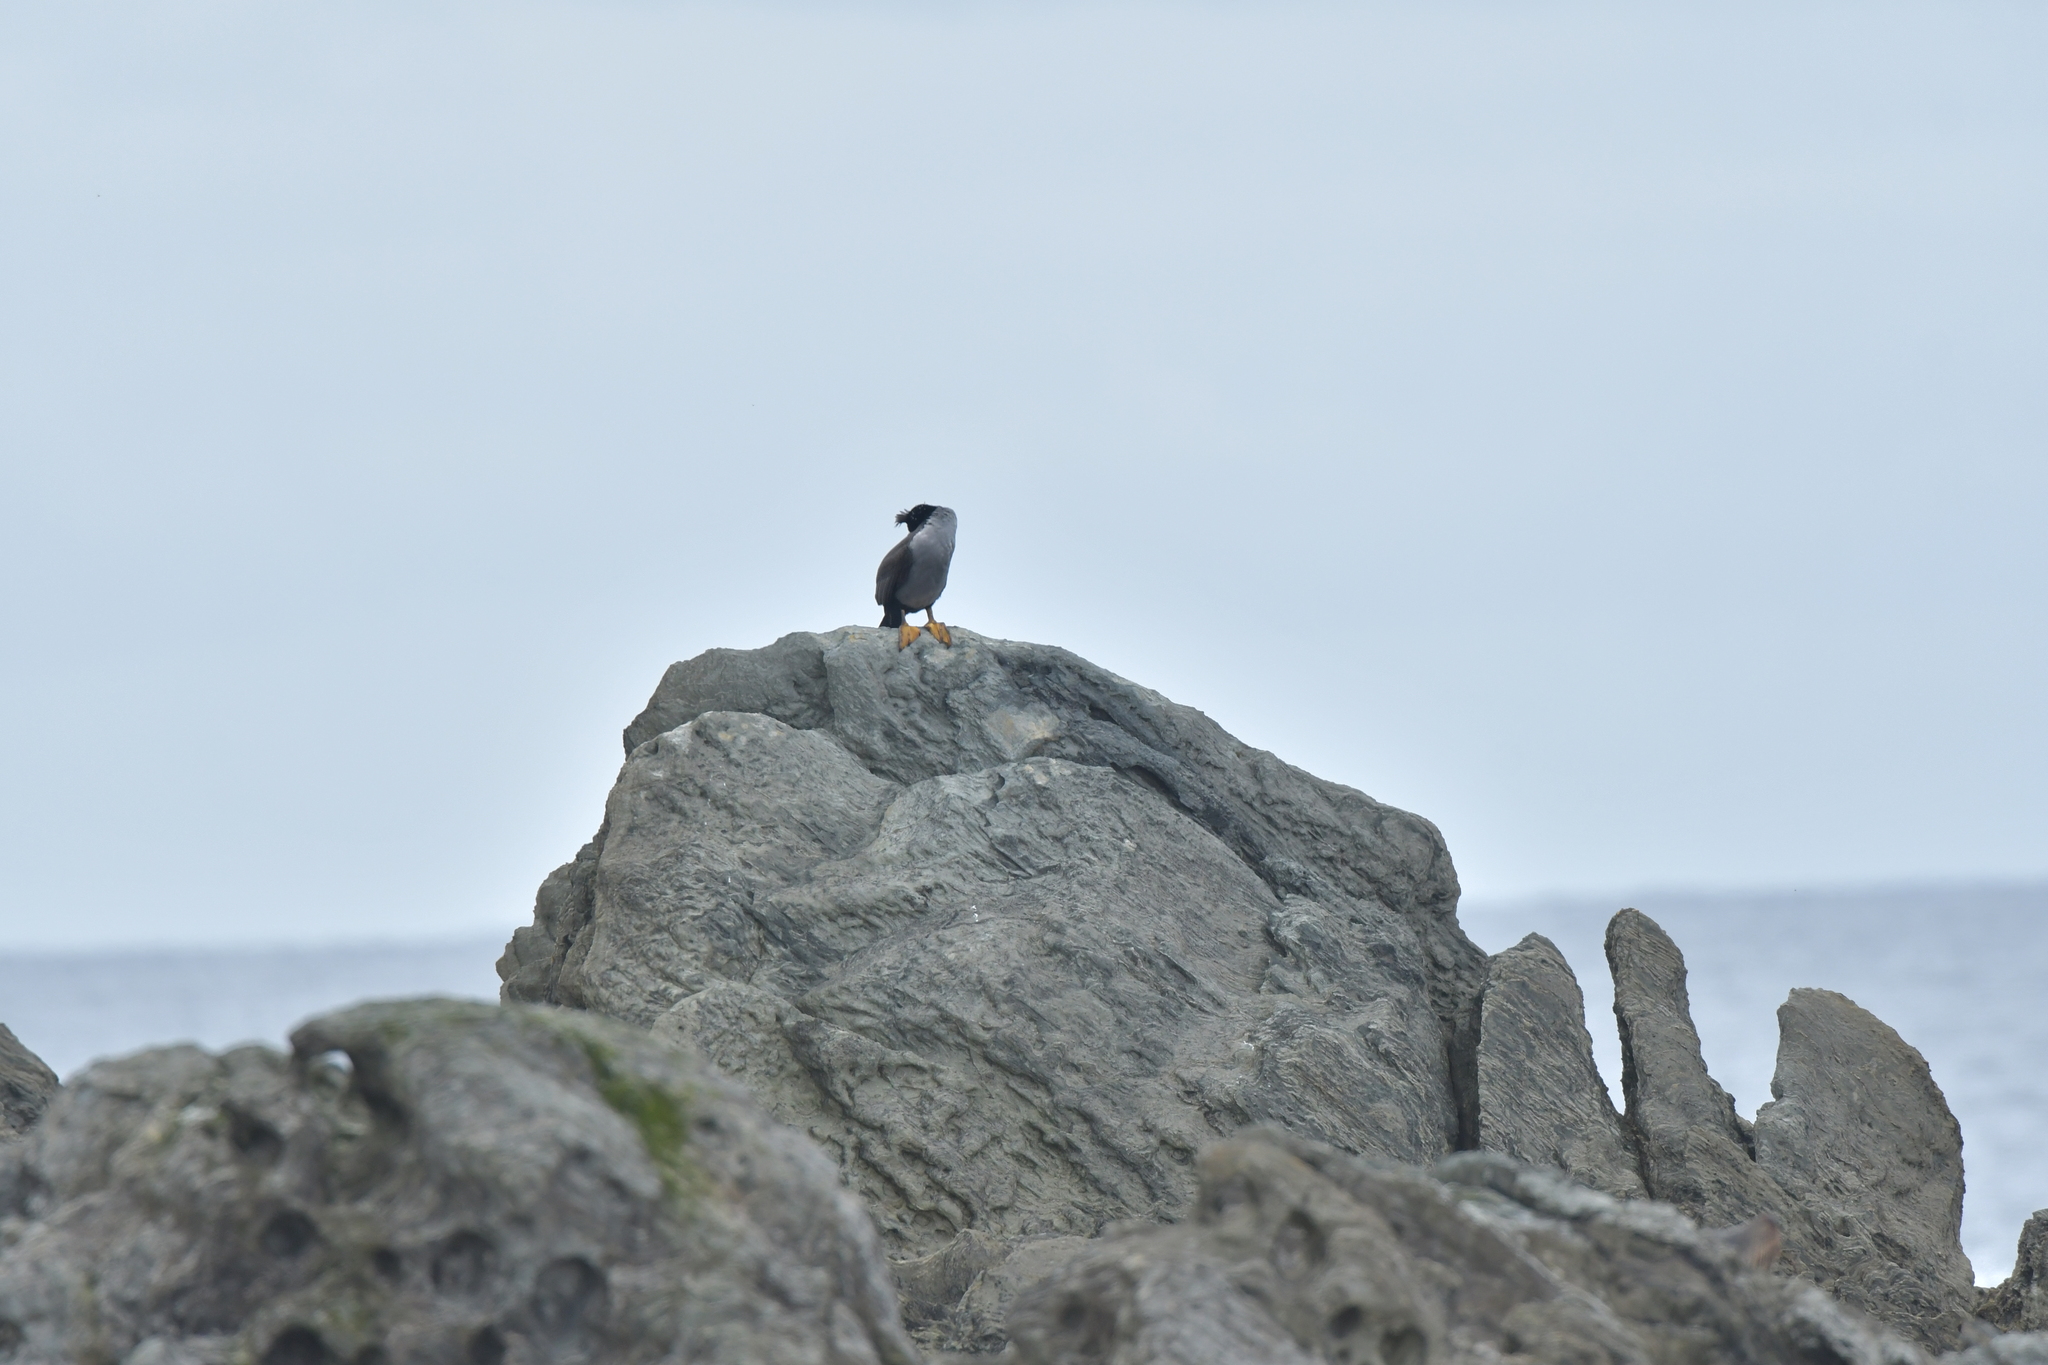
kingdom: Animalia
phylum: Chordata
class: Aves
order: Suliformes
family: Phalacrocoracidae
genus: Phalacrocorax
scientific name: Phalacrocorax featherstoni
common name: Pitt shag
